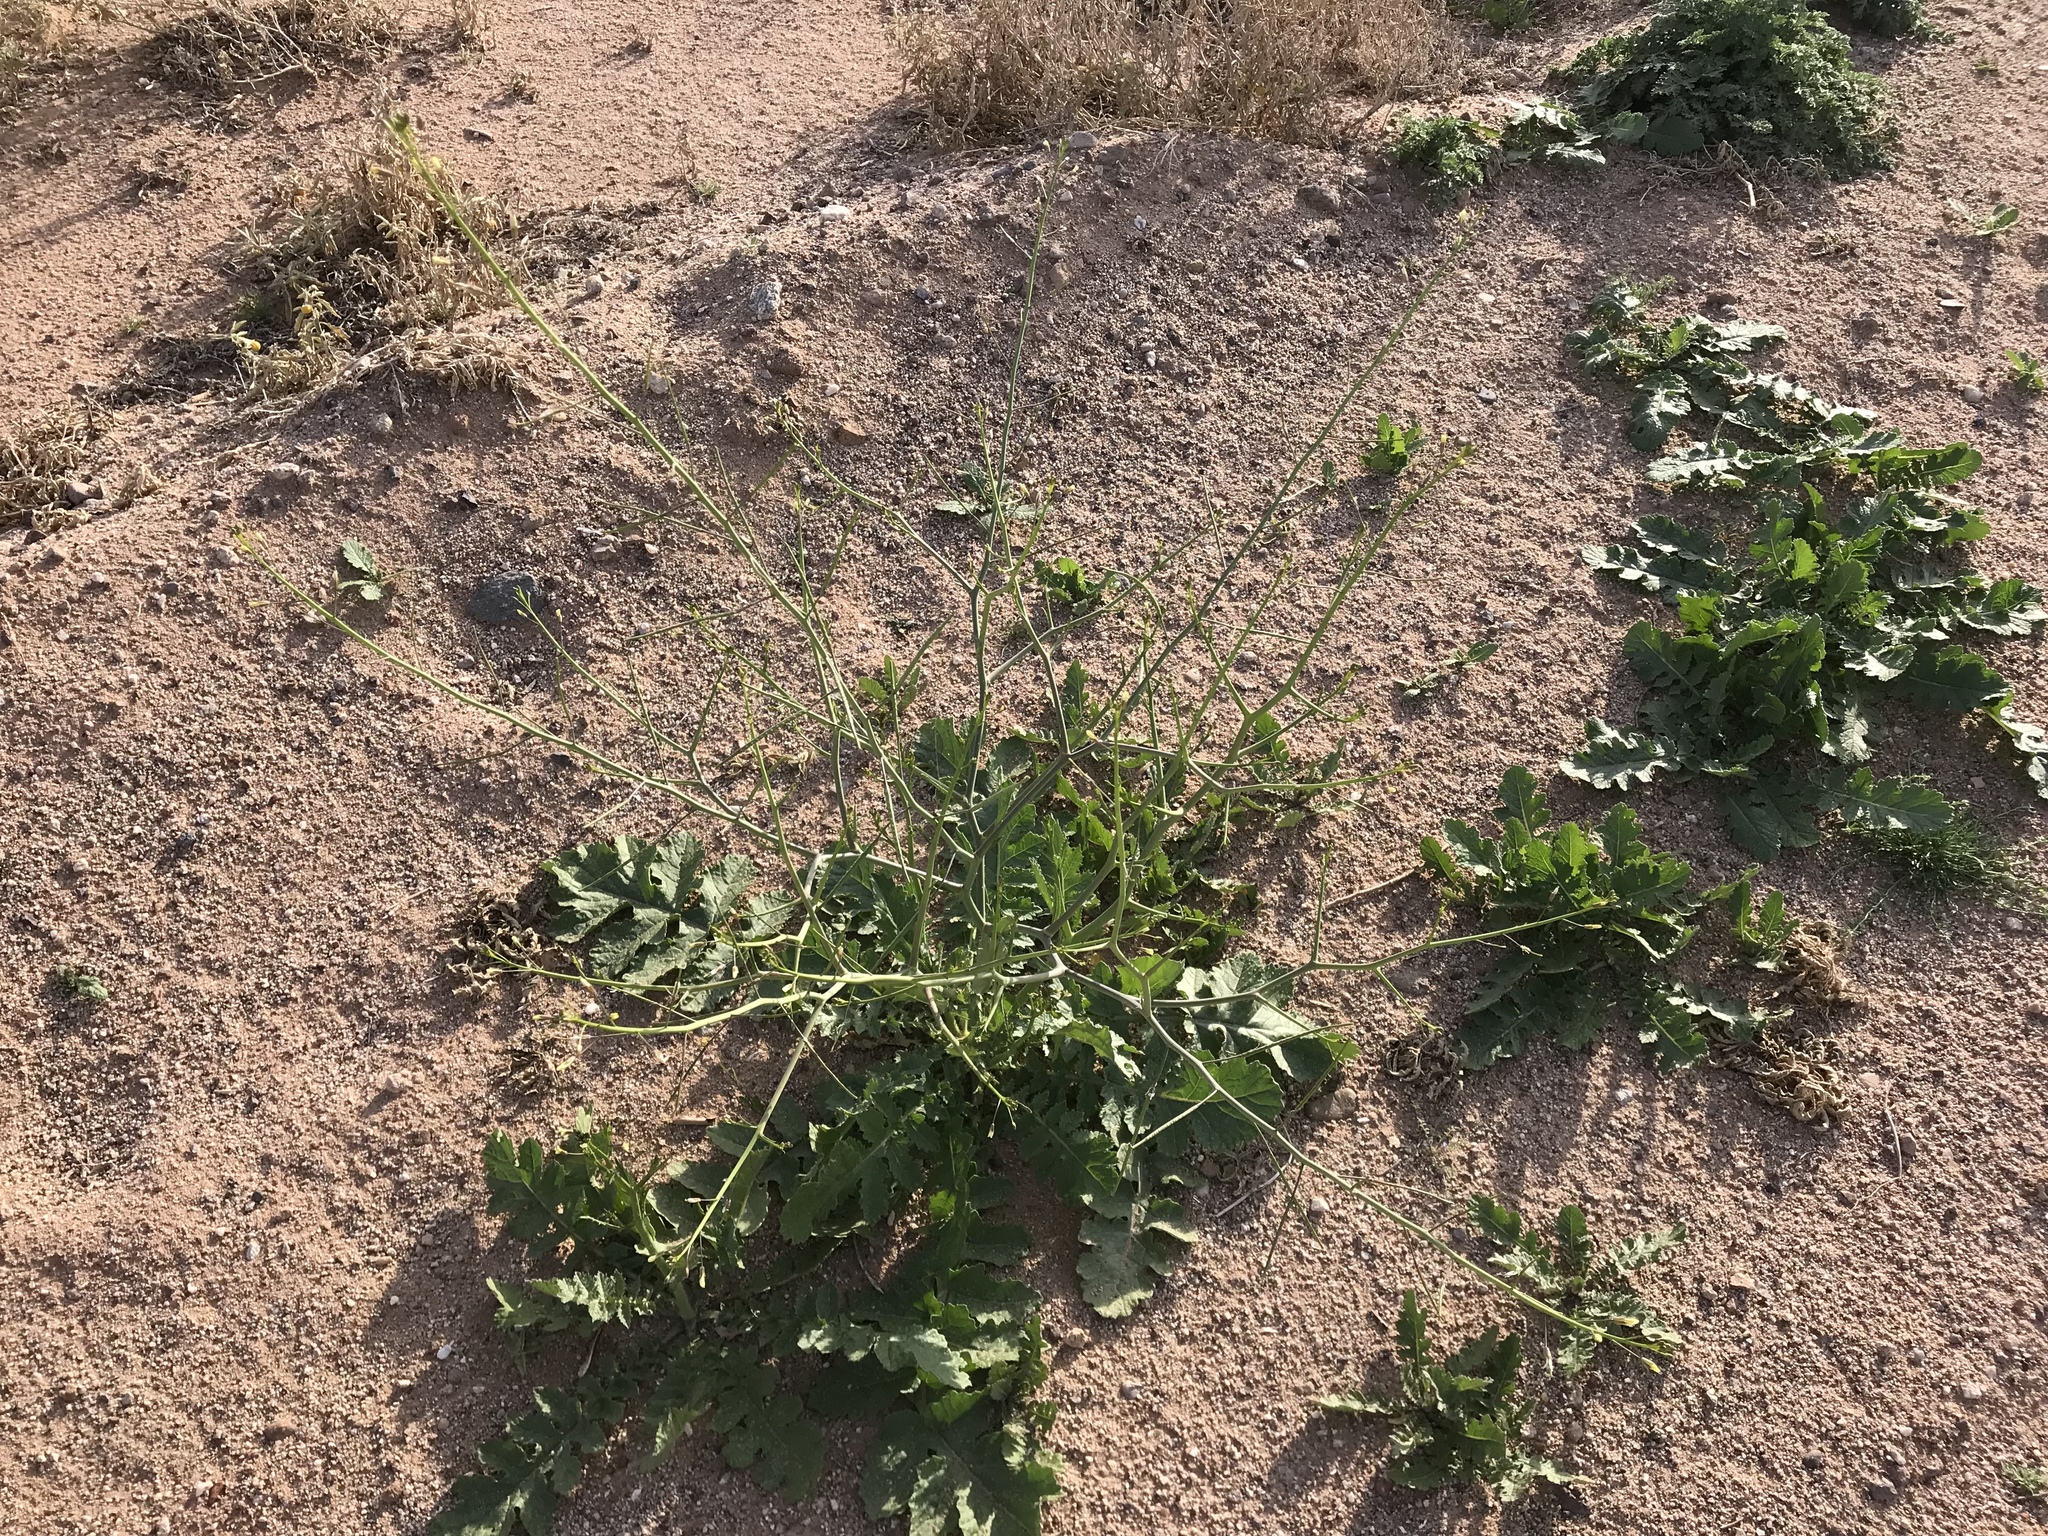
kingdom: Plantae
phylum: Tracheophyta
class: Magnoliopsida
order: Brassicales
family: Brassicaceae
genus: Brassica
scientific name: Brassica tournefortii
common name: Pale cabbage
